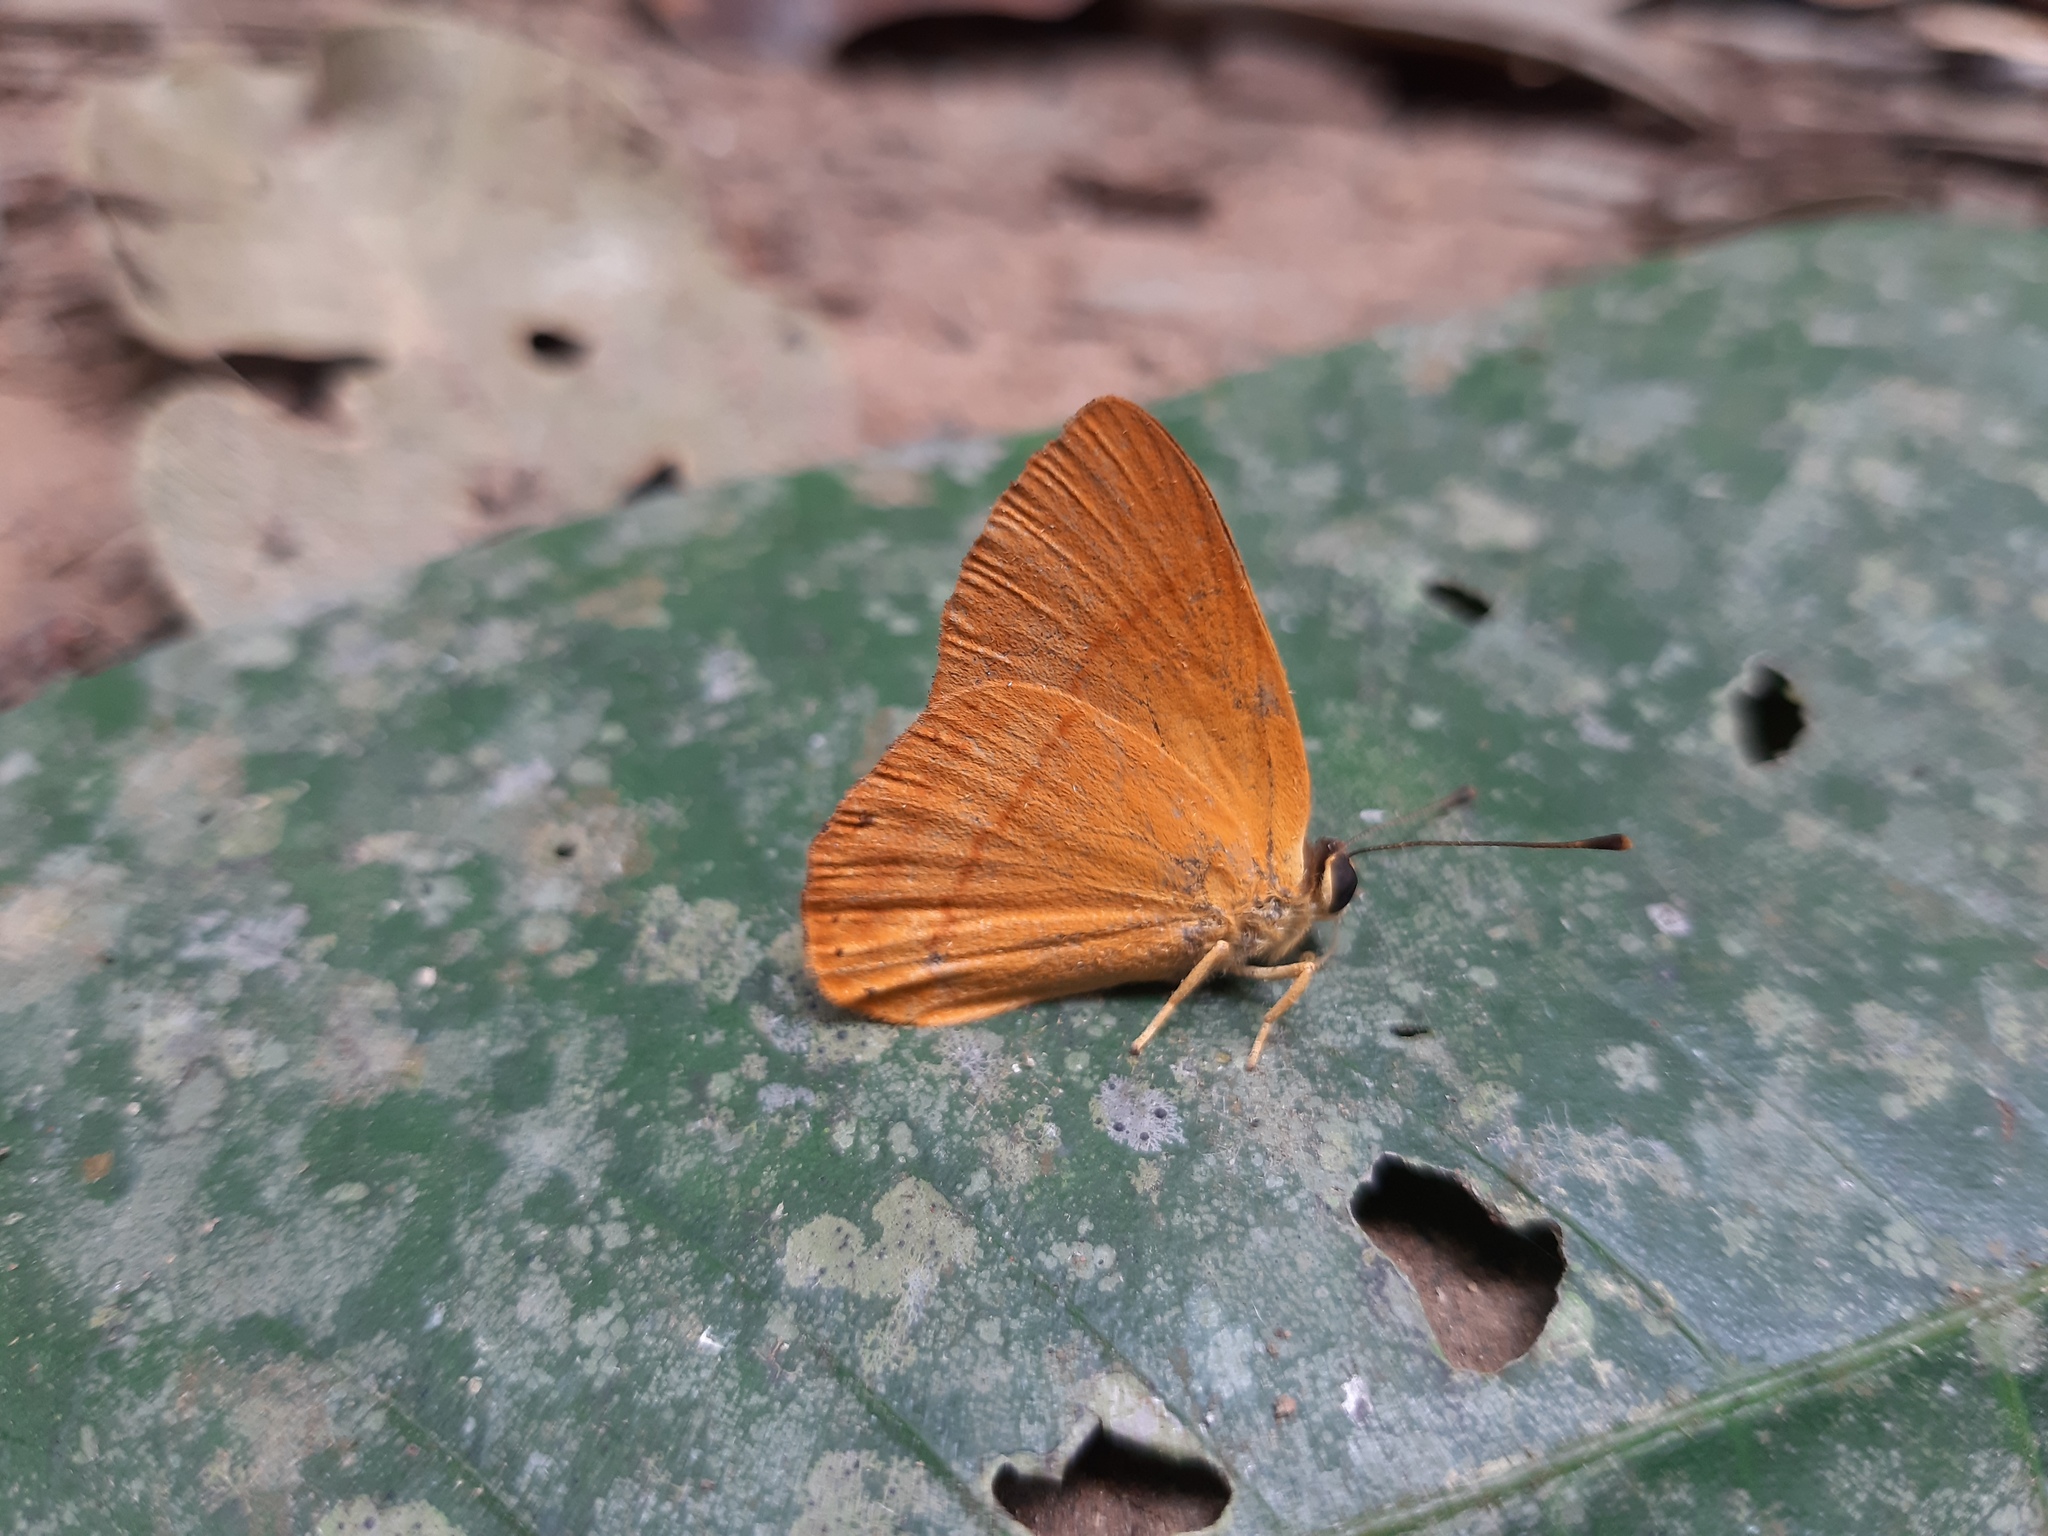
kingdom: Animalia
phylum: Arthropoda
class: Insecta
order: Hemiptera
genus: Marmessus
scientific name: Marmessus
